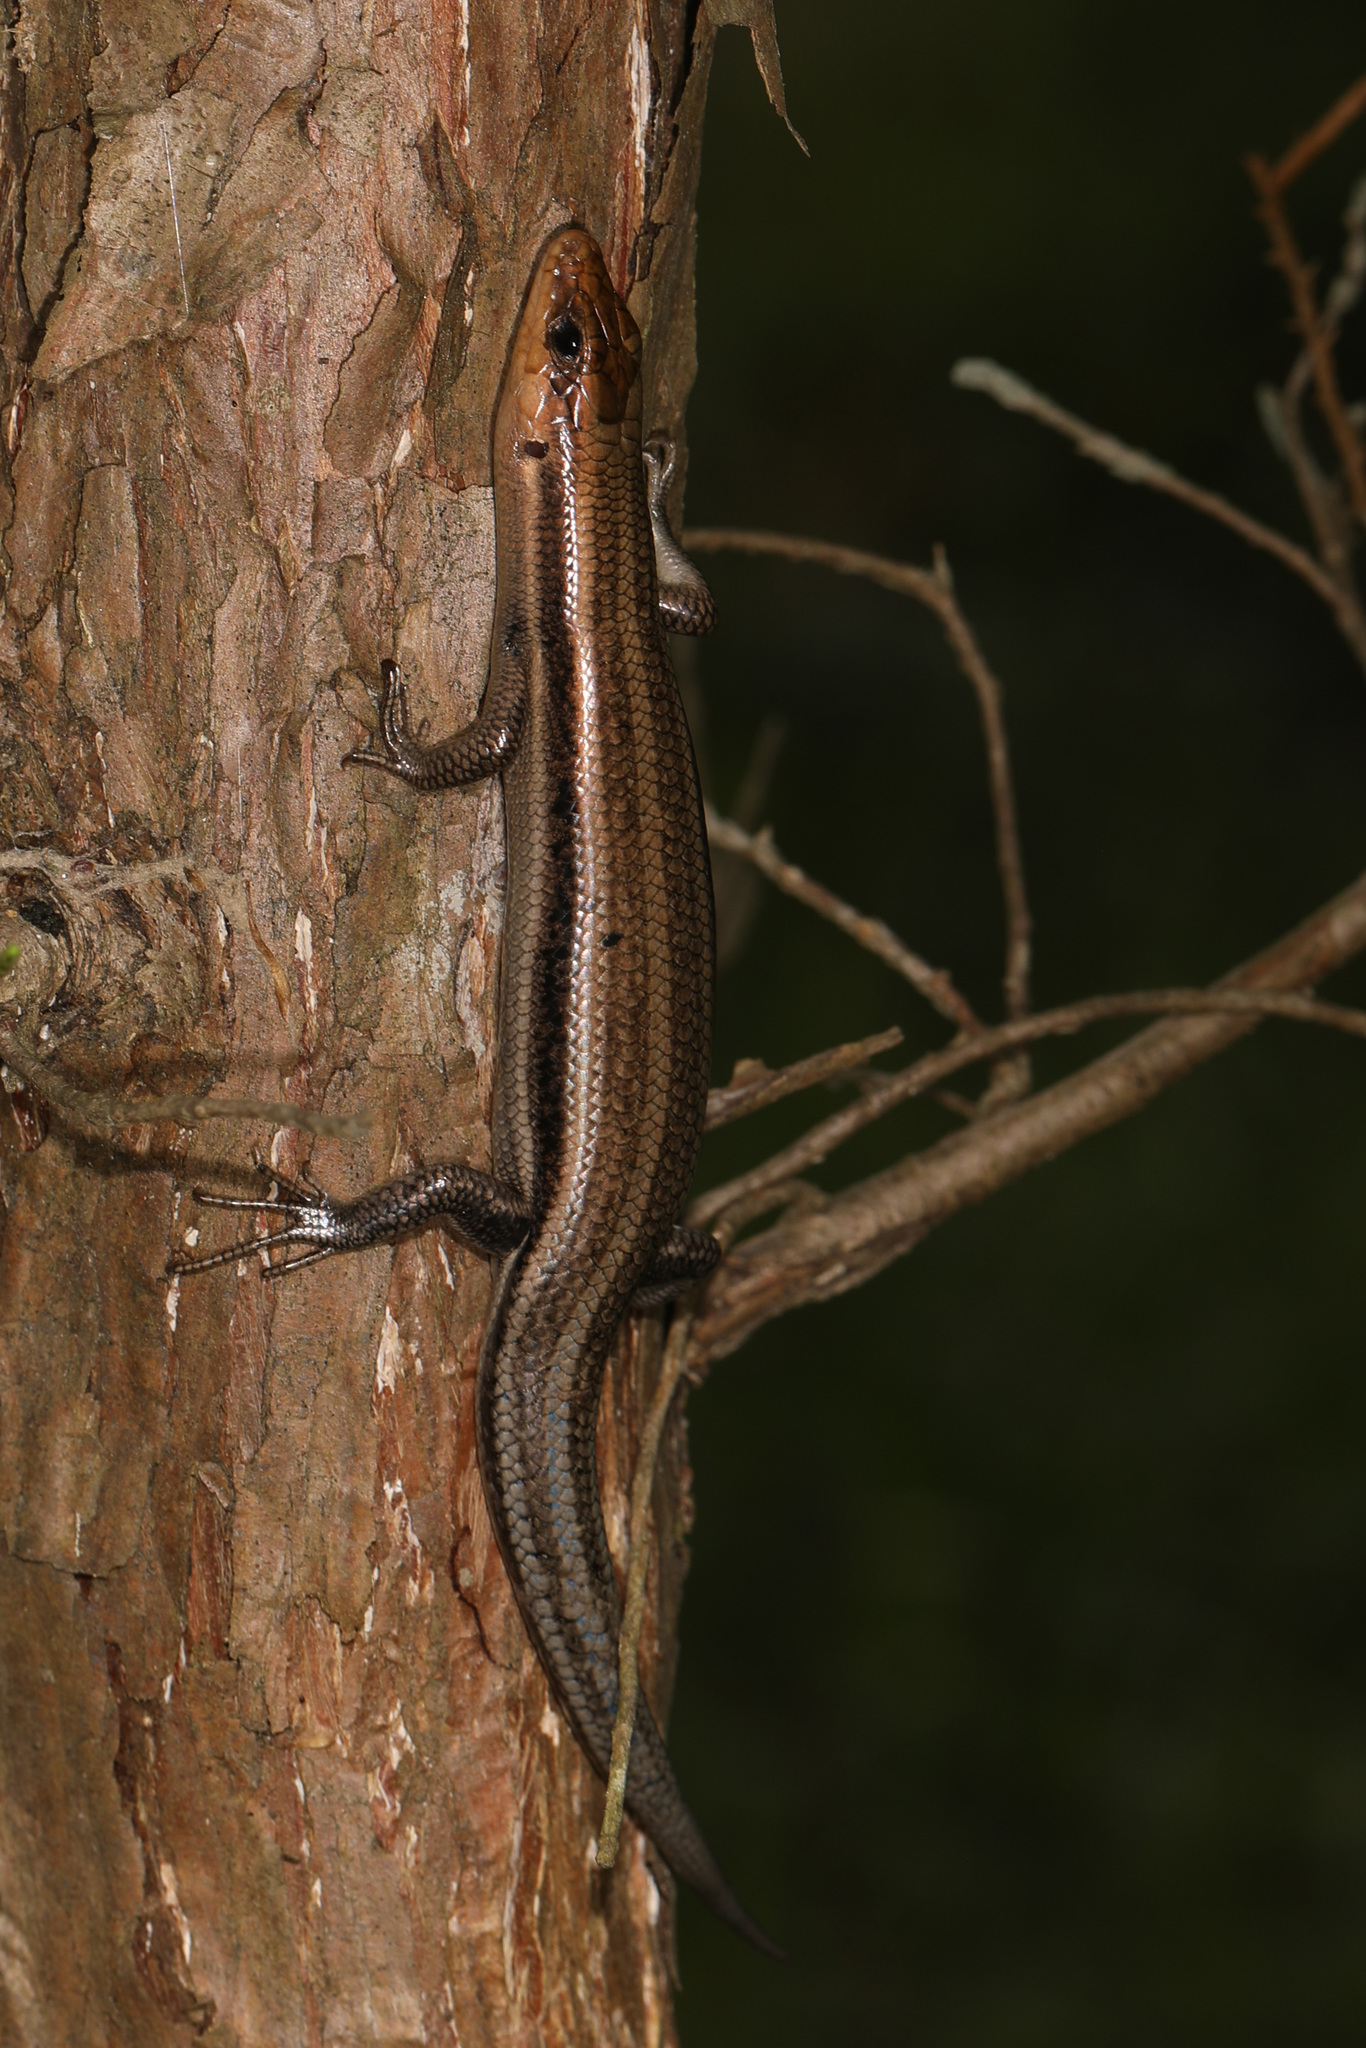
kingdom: Animalia
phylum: Chordata
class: Squamata
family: Scincidae
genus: Plestiodon
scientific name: Plestiodon fasciatus
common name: Five-lined skink
